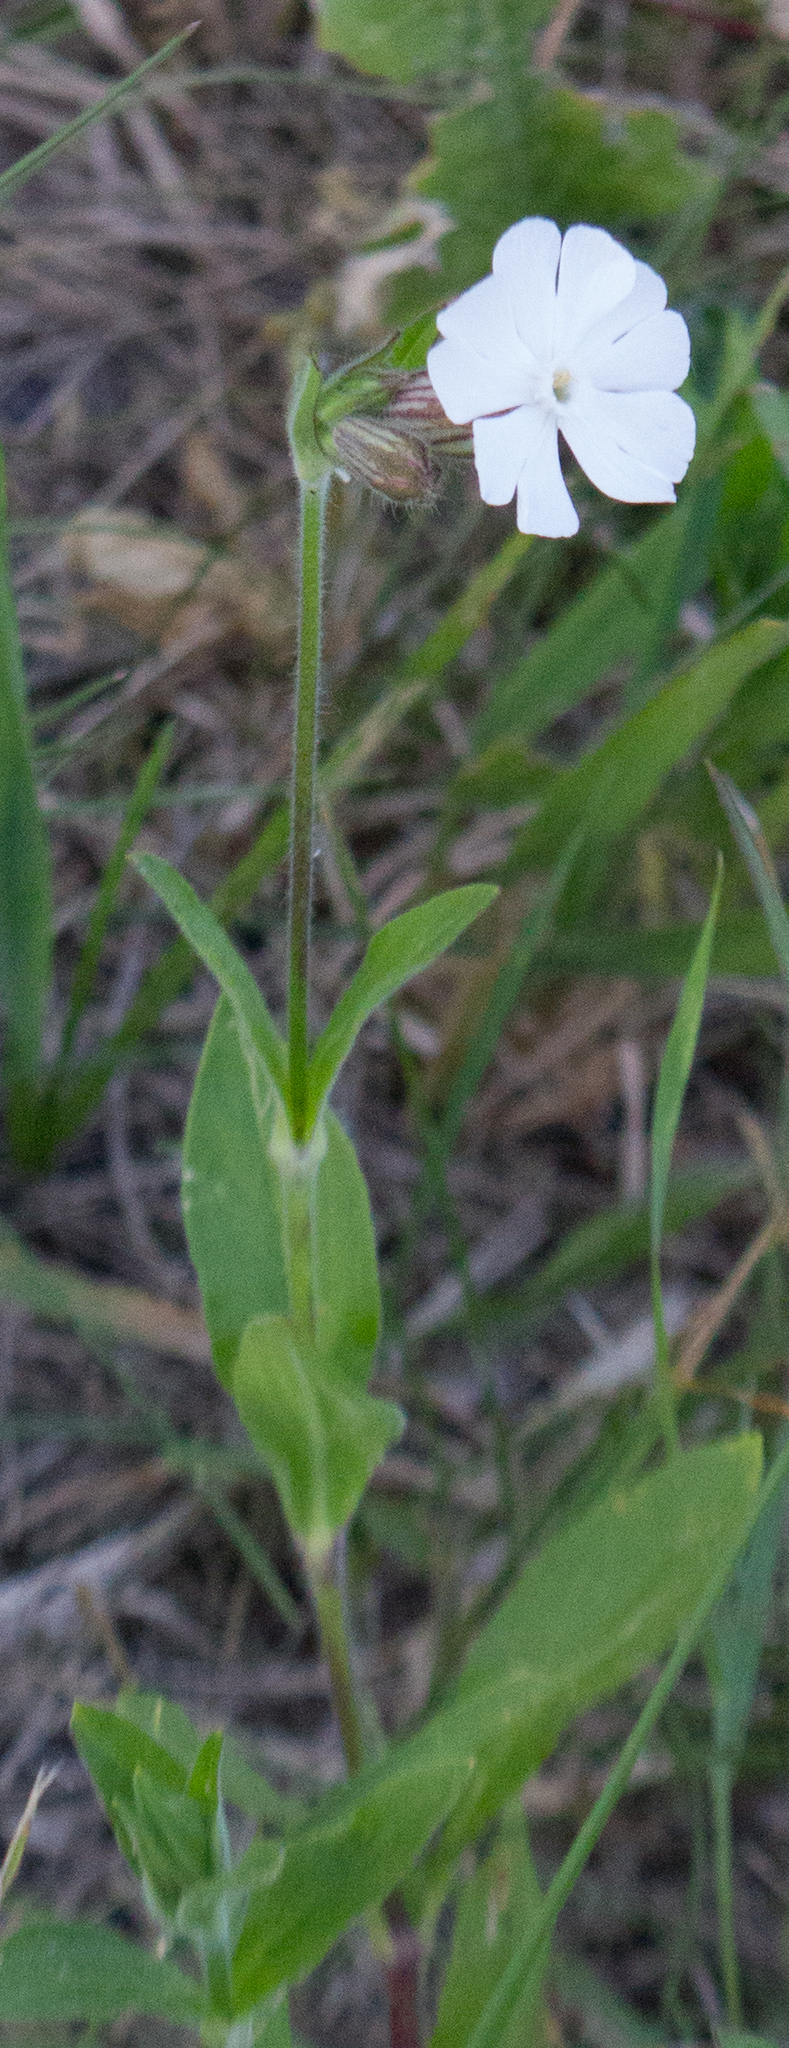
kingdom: Plantae
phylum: Tracheophyta
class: Magnoliopsida
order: Caryophyllales
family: Caryophyllaceae
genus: Silene
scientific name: Silene latifolia
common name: White campion
